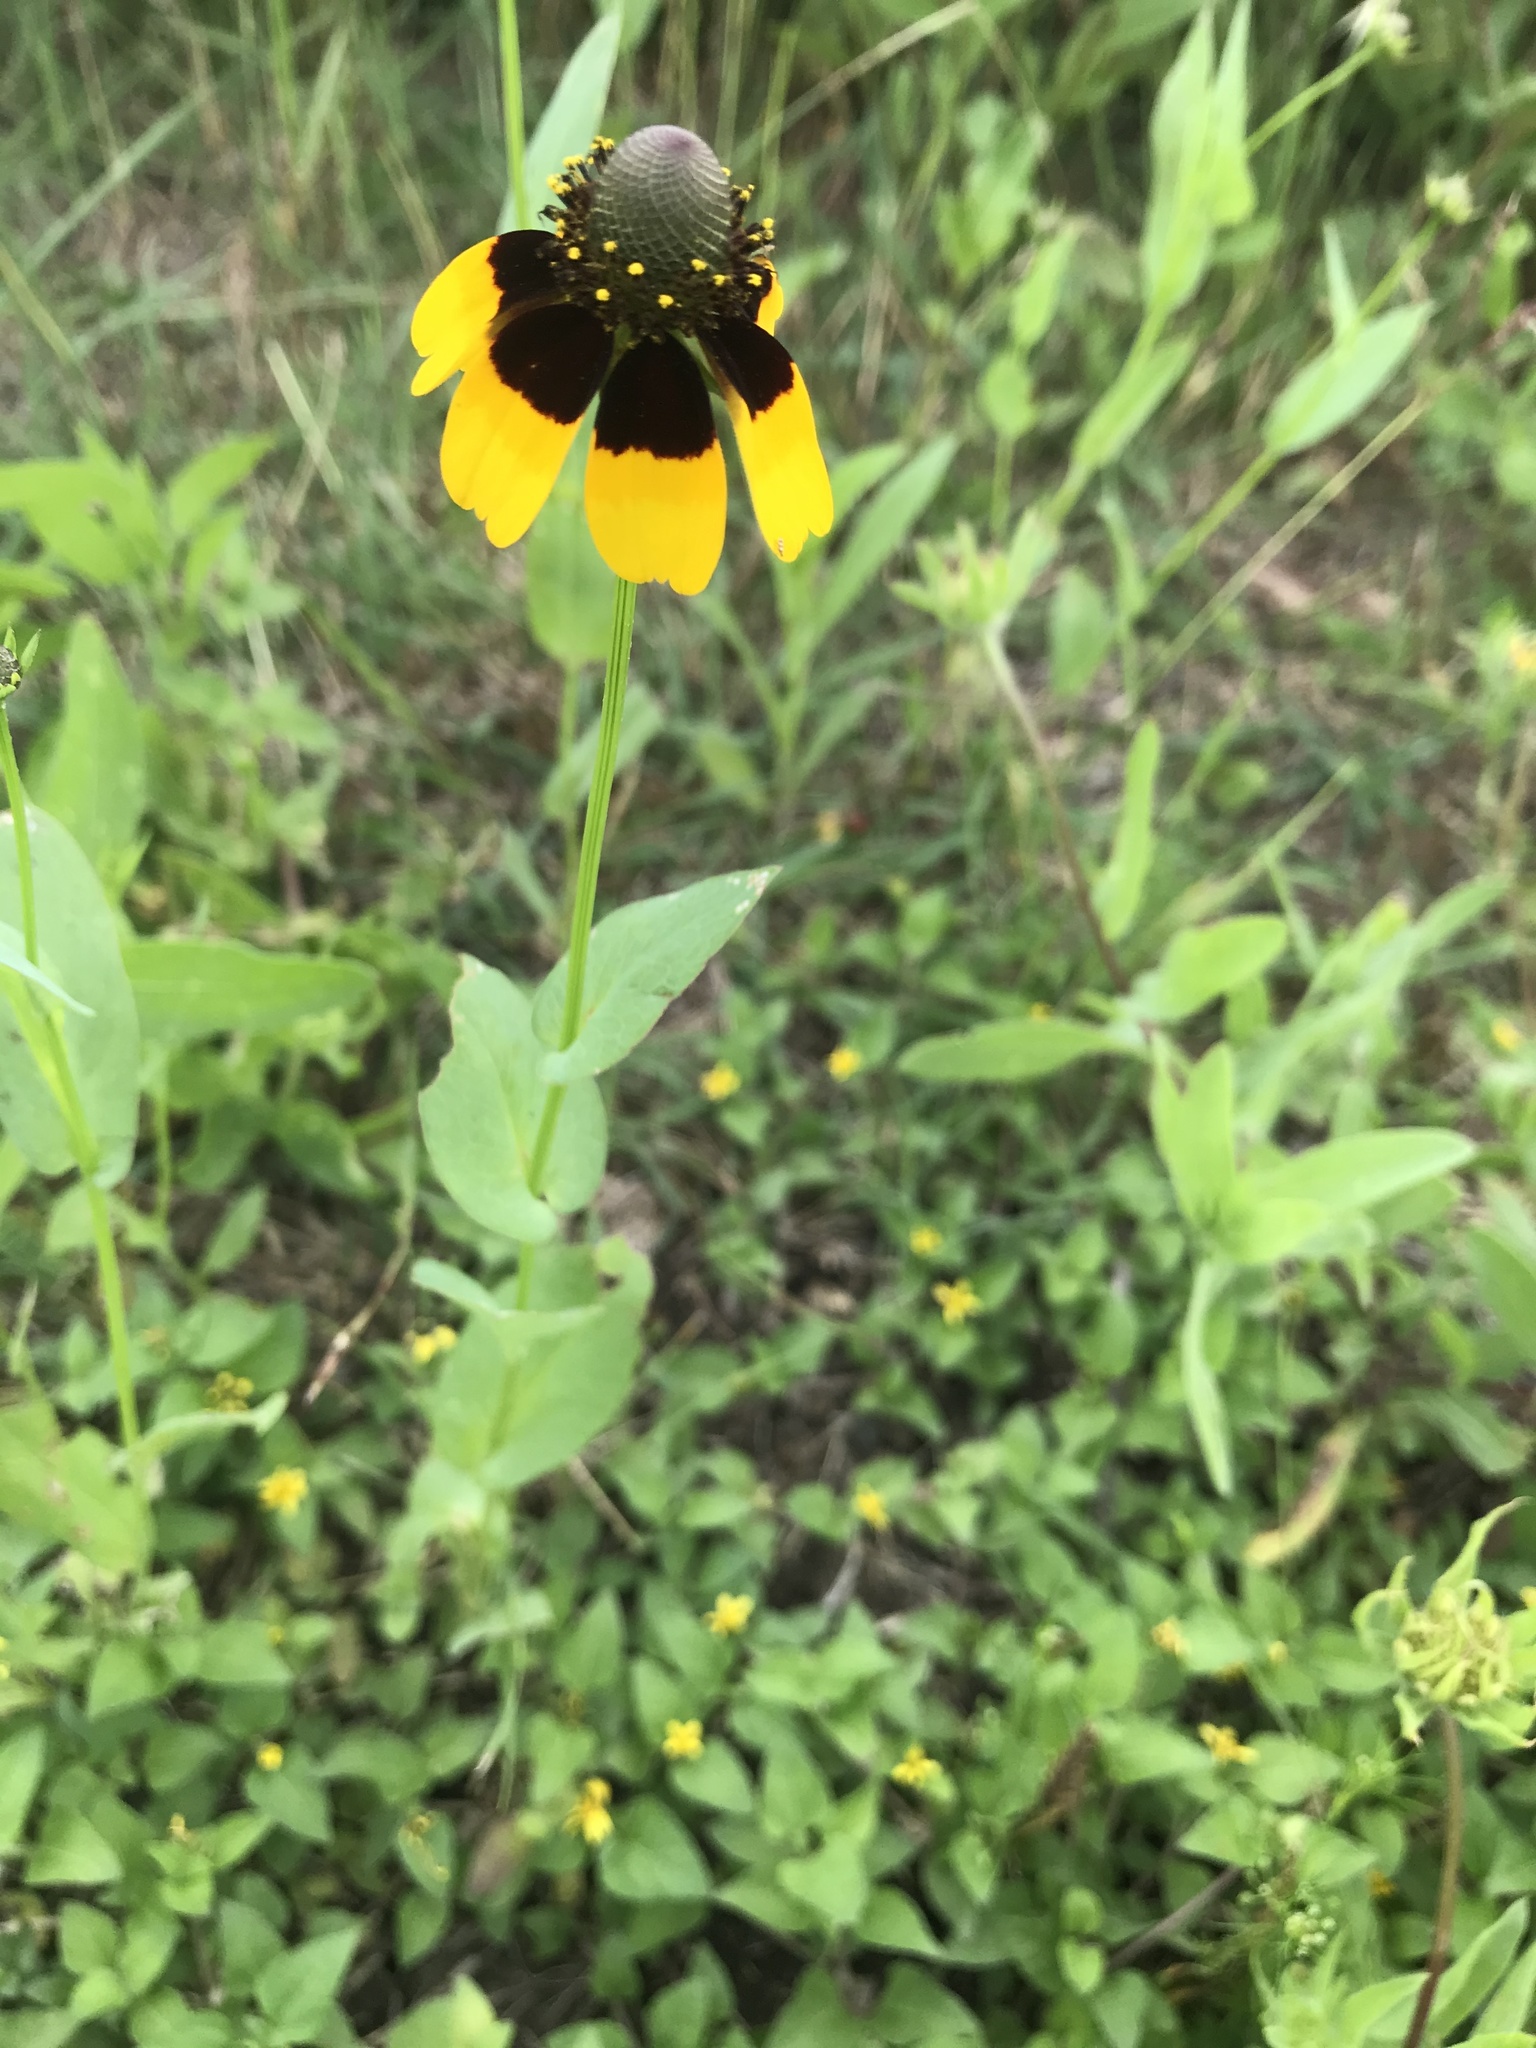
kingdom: Plantae
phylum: Tracheophyta
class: Magnoliopsida
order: Asterales
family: Asteraceae
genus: Rudbeckia
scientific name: Rudbeckia amplexicaulis
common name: Clasping-leaf coneflower
